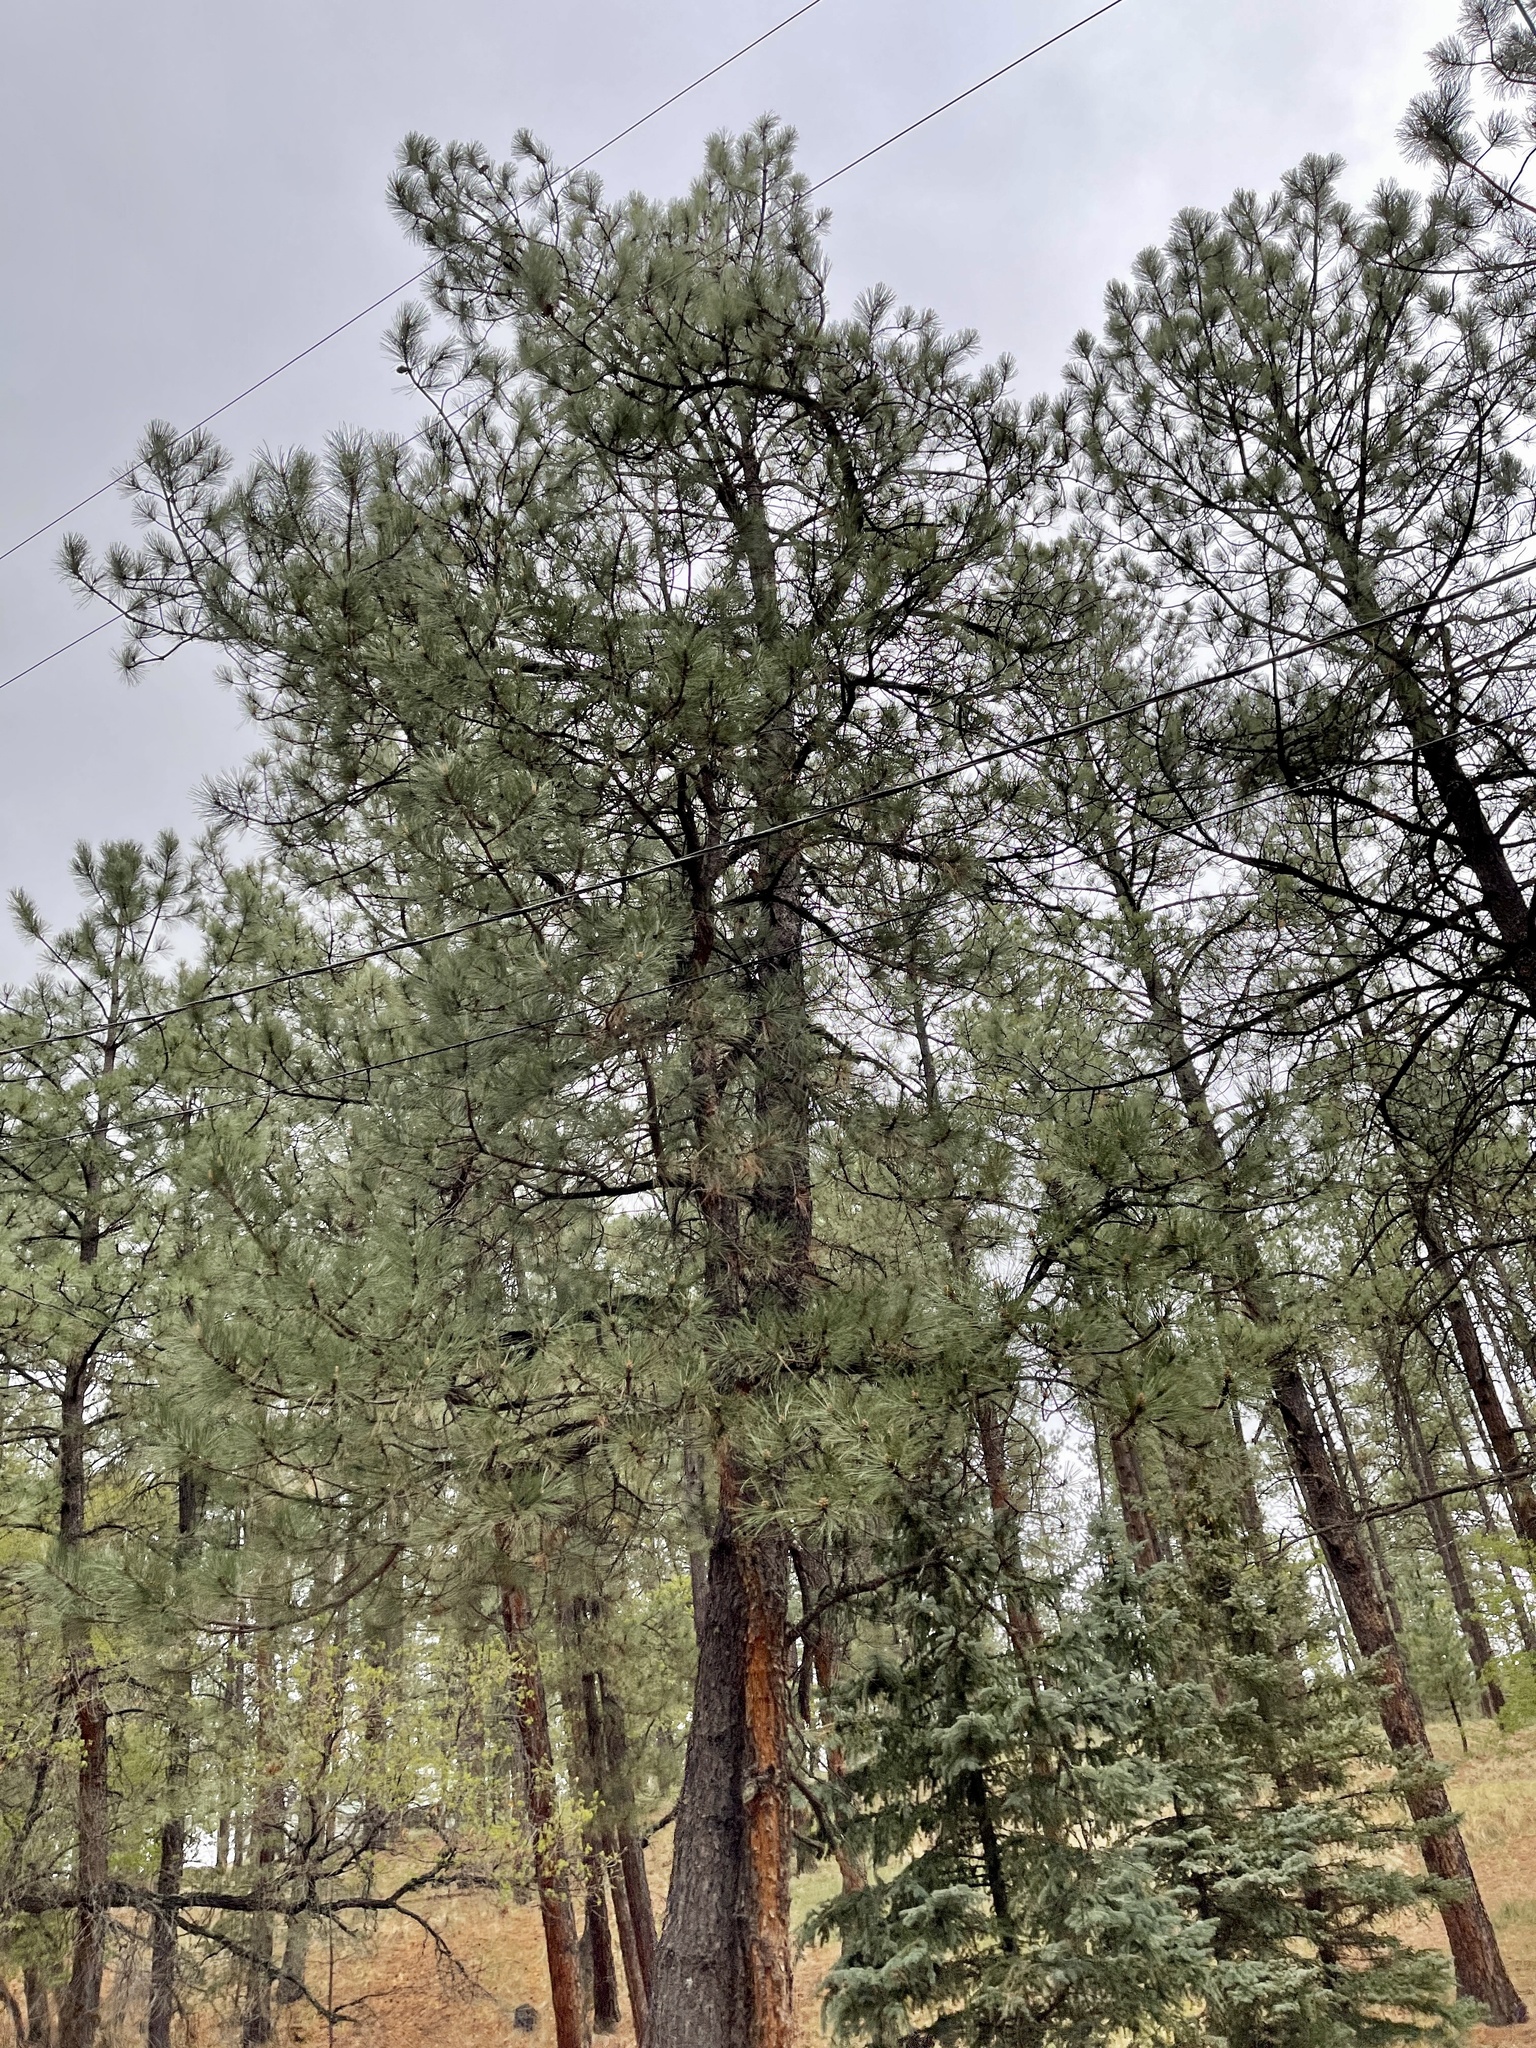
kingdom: Plantae
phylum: Tracheophyta
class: Pinopsida
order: Pinales
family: Pinaceae
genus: Pinus
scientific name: Pinus ponderosa
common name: Western yellow-pine
